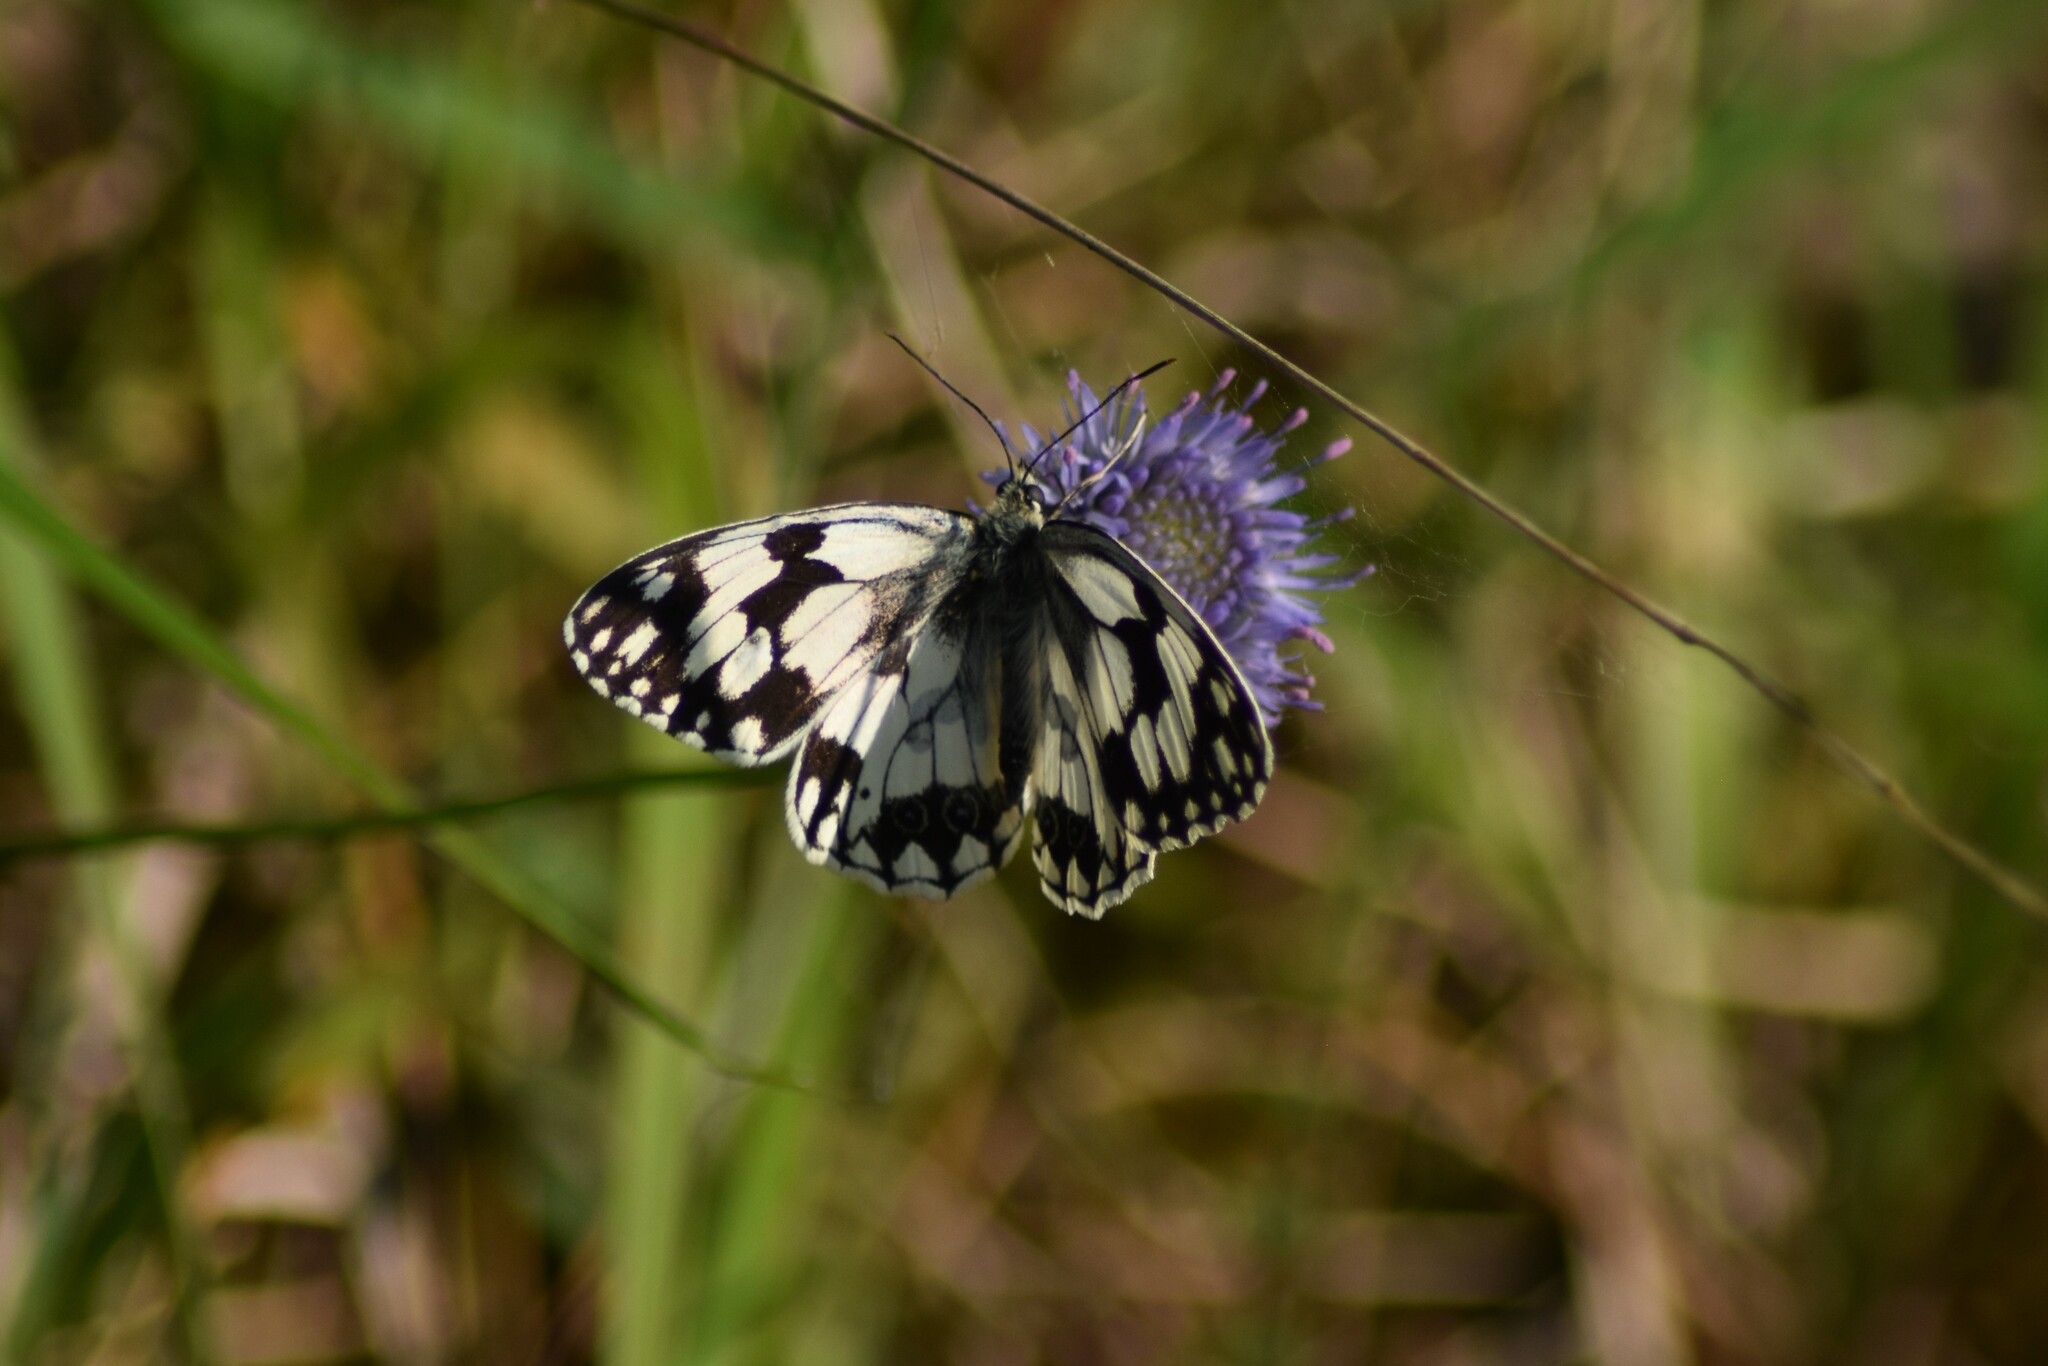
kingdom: Animalia
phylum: Arthropoda
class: Insecta
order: Lepidoptera
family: Nymphalidae
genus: Melanargia
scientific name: Melanargia lachesis
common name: Iberian marbled white
